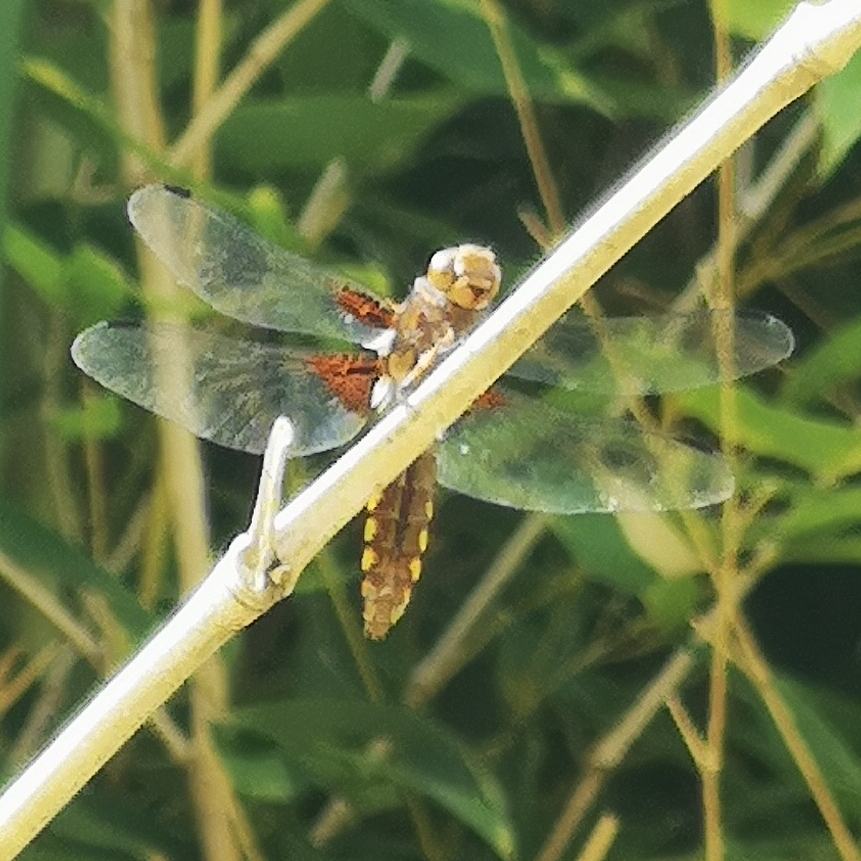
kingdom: Animalia
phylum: Arthropoda
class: Insecta
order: Odonata
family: Libellulidae
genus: Libellula
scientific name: Libellula depressa
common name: Broad-bodied chaser
